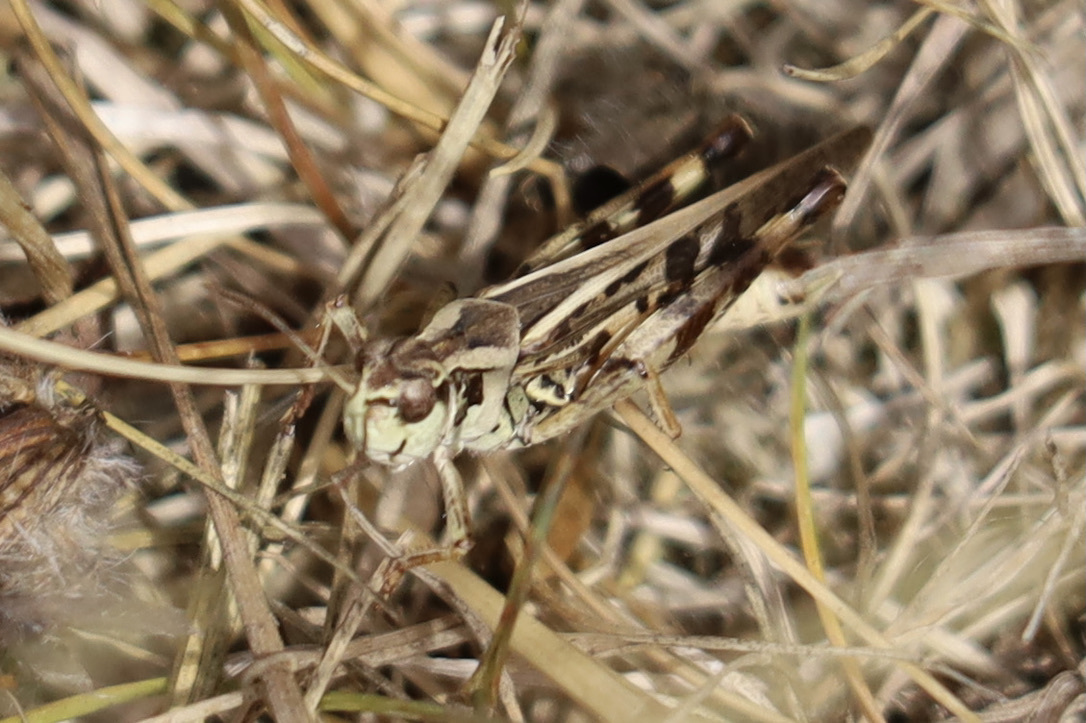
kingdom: Animalia
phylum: Arthropoda
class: Insecta
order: Orthoptera
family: Acrididae
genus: Camnula
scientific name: Camnula pellucida
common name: Clear-winged grasshopper
